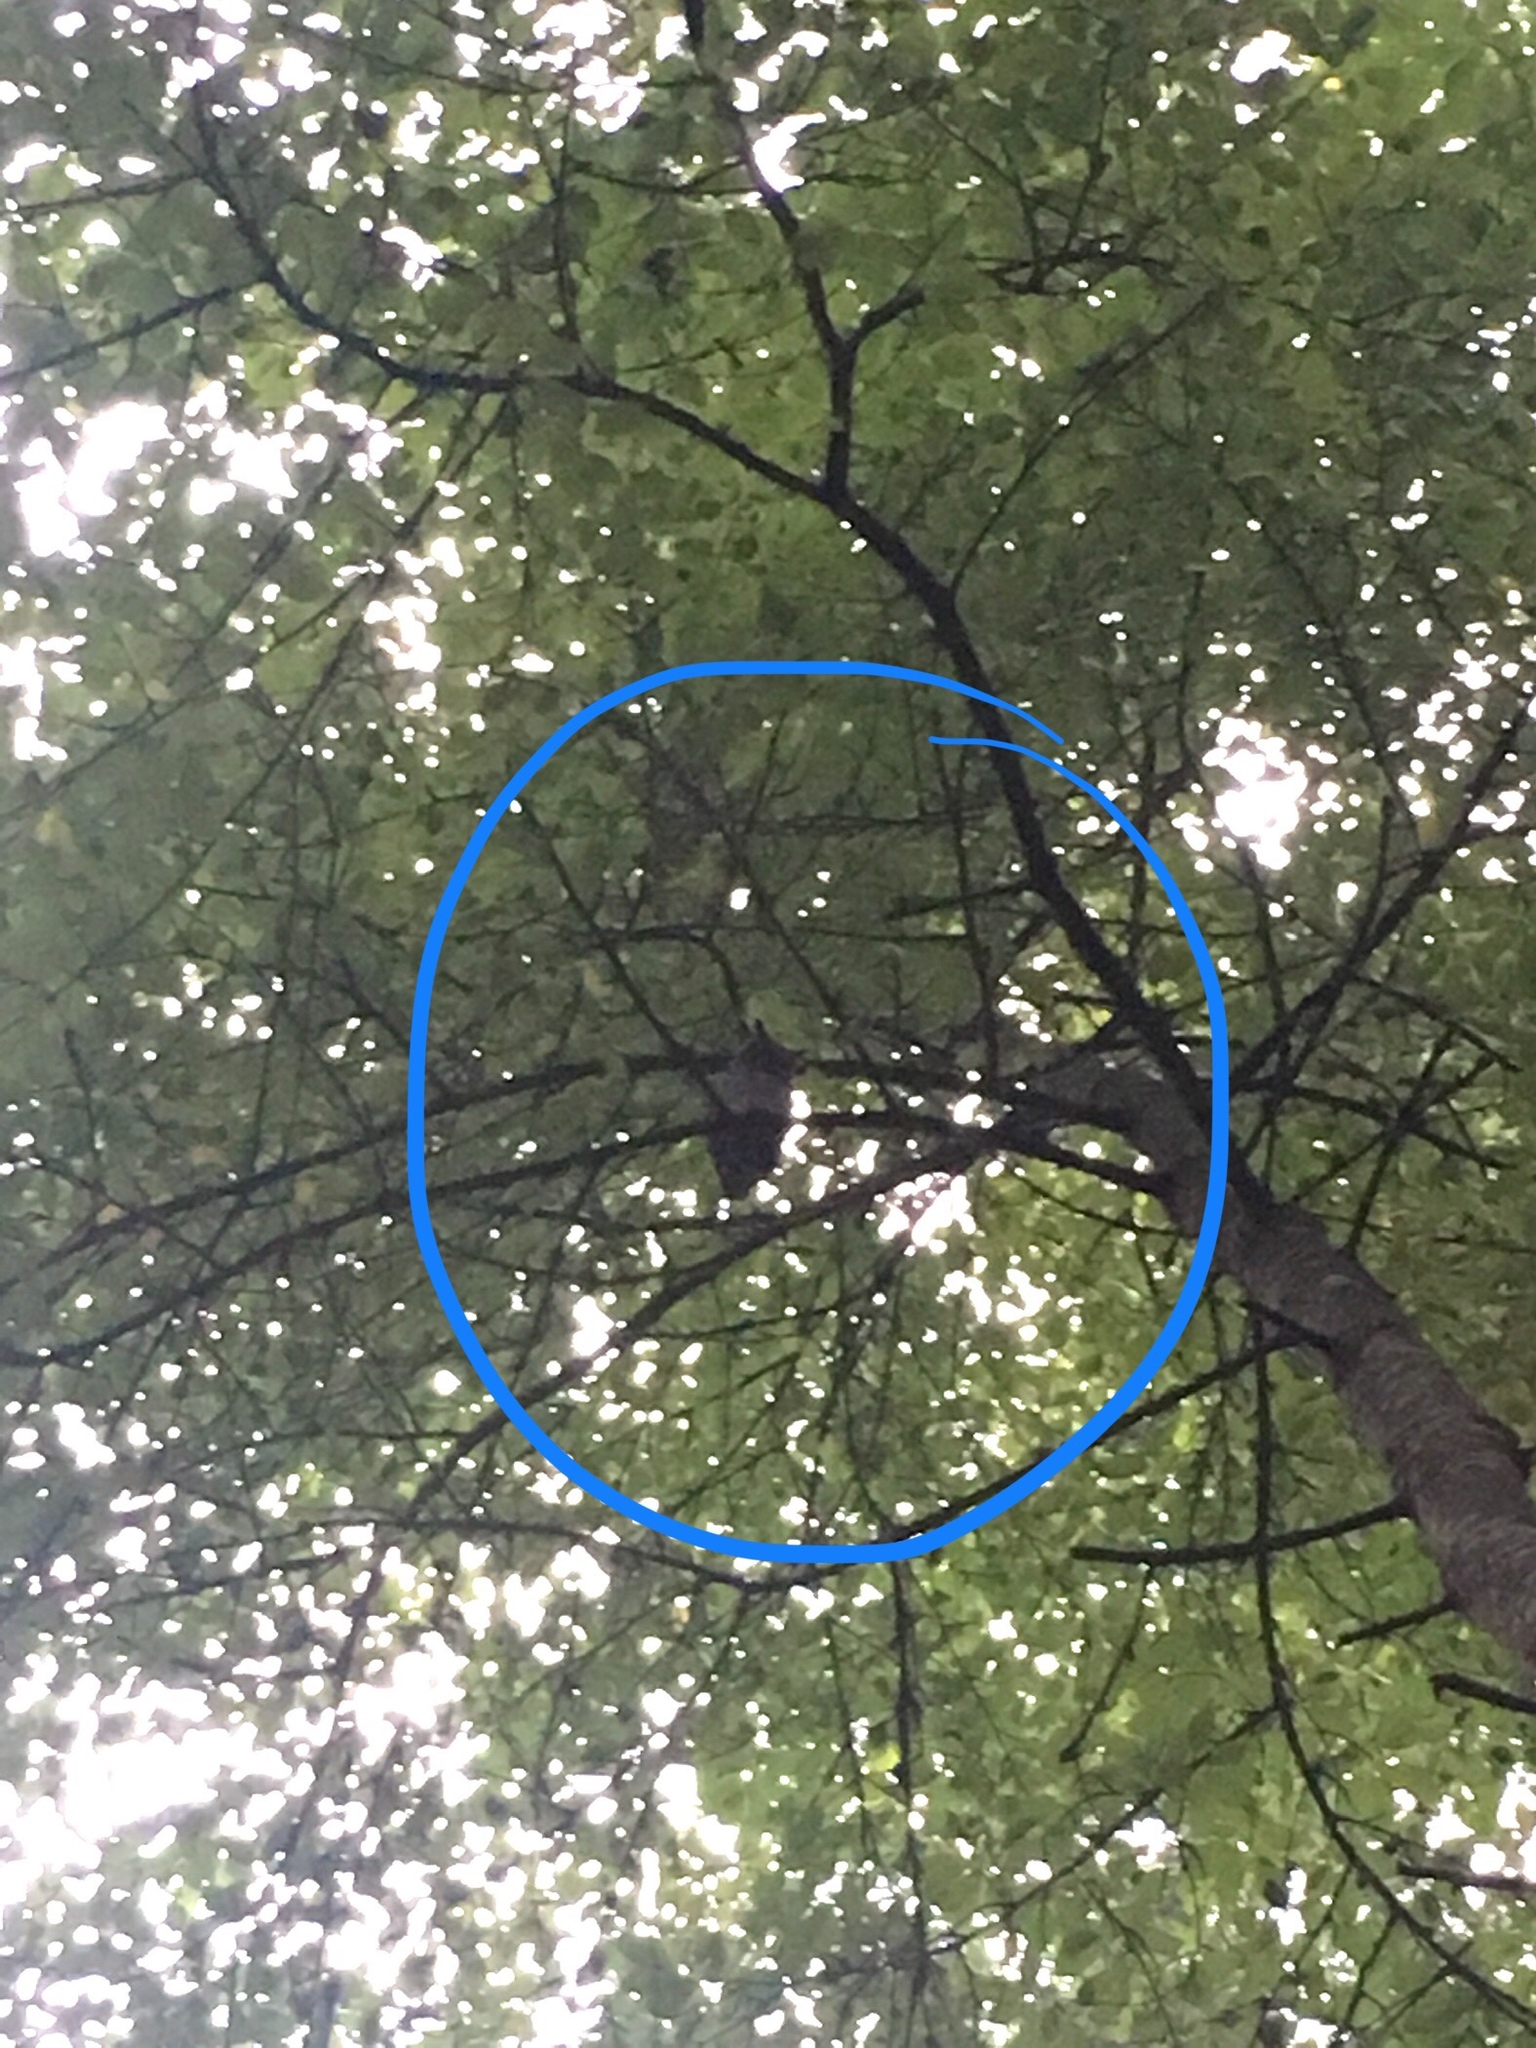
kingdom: Animalia
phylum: Chordata
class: Aves
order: Strigiformes
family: Strigidae
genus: Bubo
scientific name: Bubo virginianus
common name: Great horned owl
